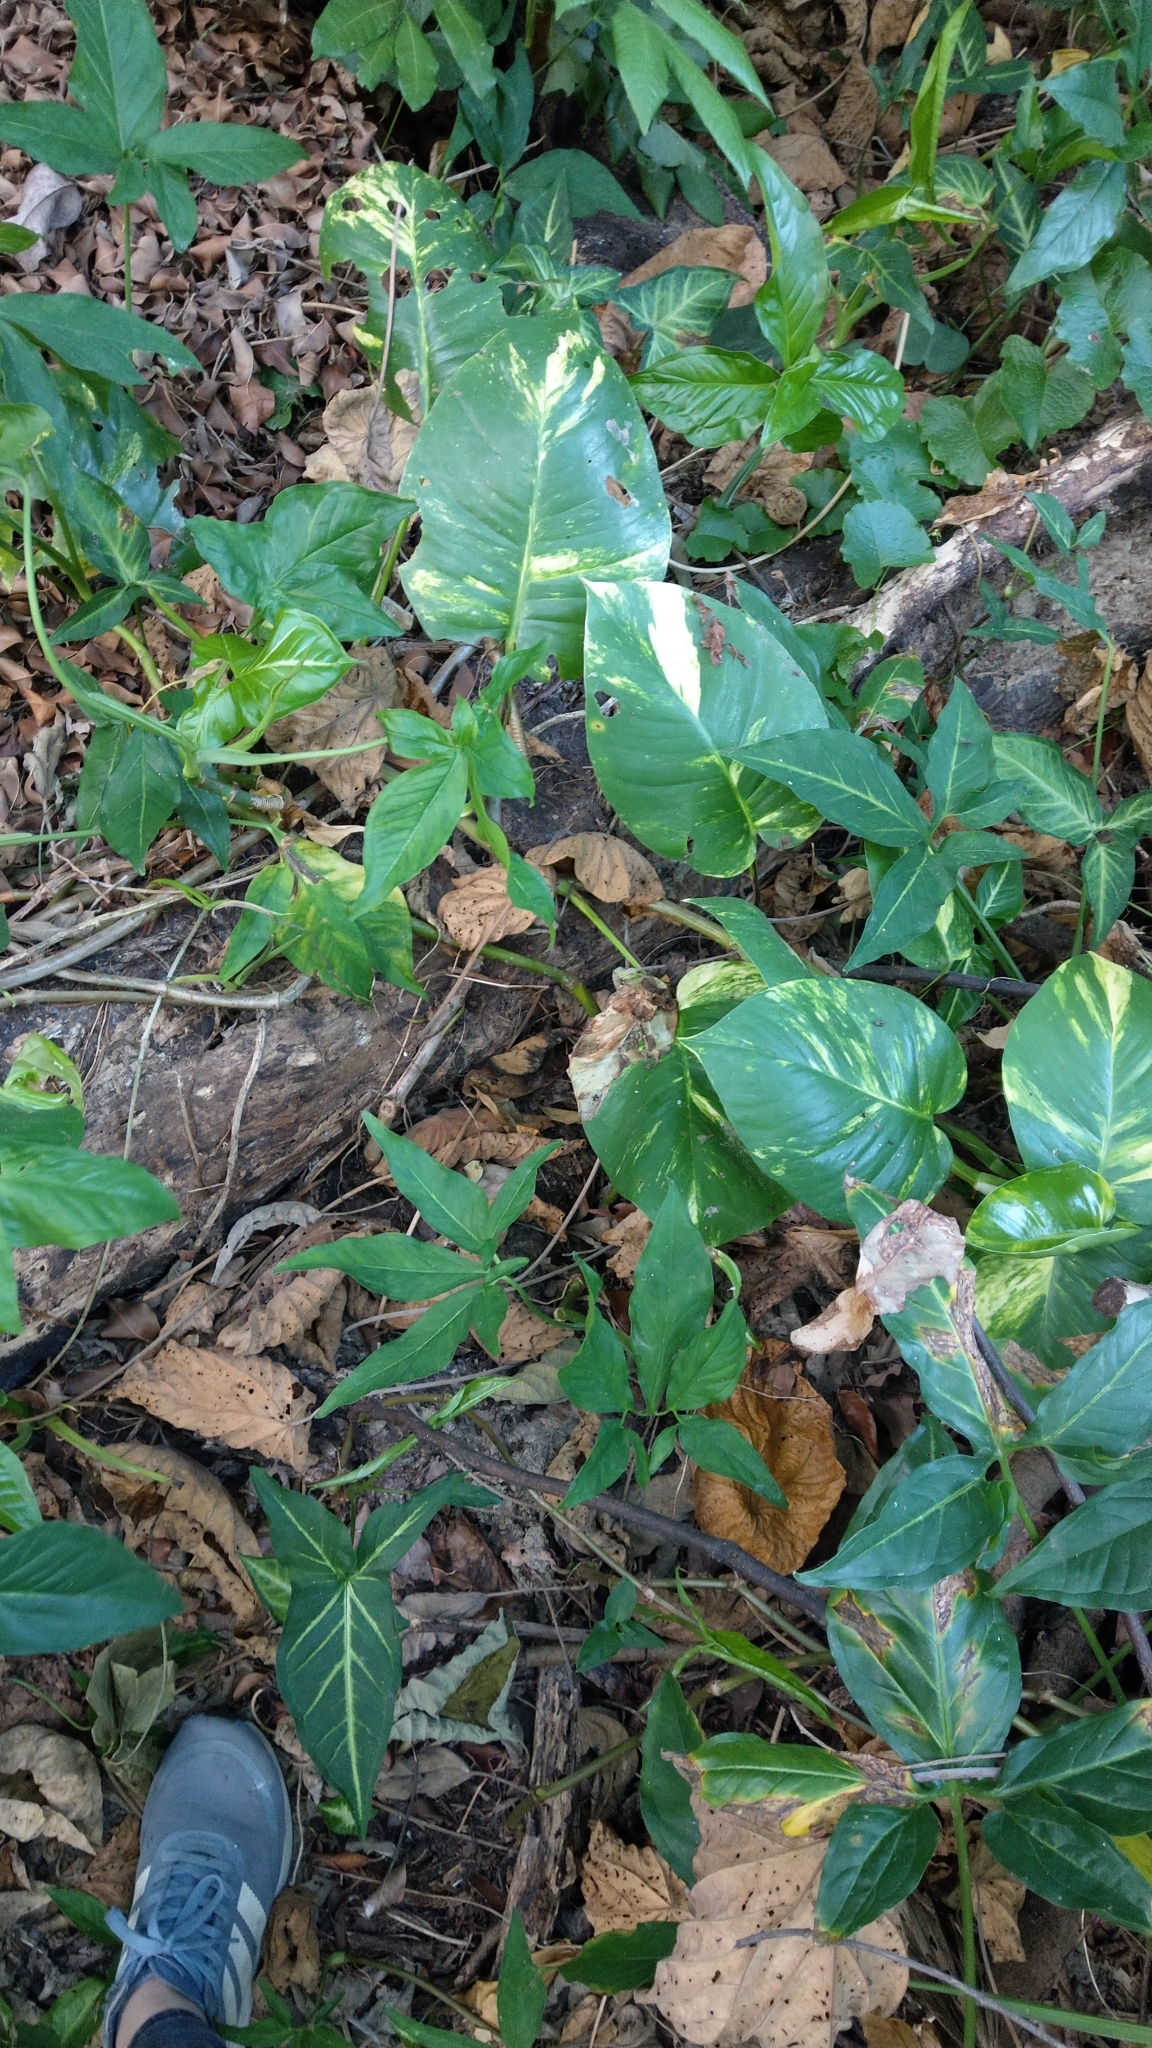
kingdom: Plantae
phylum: Tracheophyta
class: Liliopsida
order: Alismatales
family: Araceae
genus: Epipremnum
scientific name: Epipremnum aureum
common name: Golden hunter's-robe
